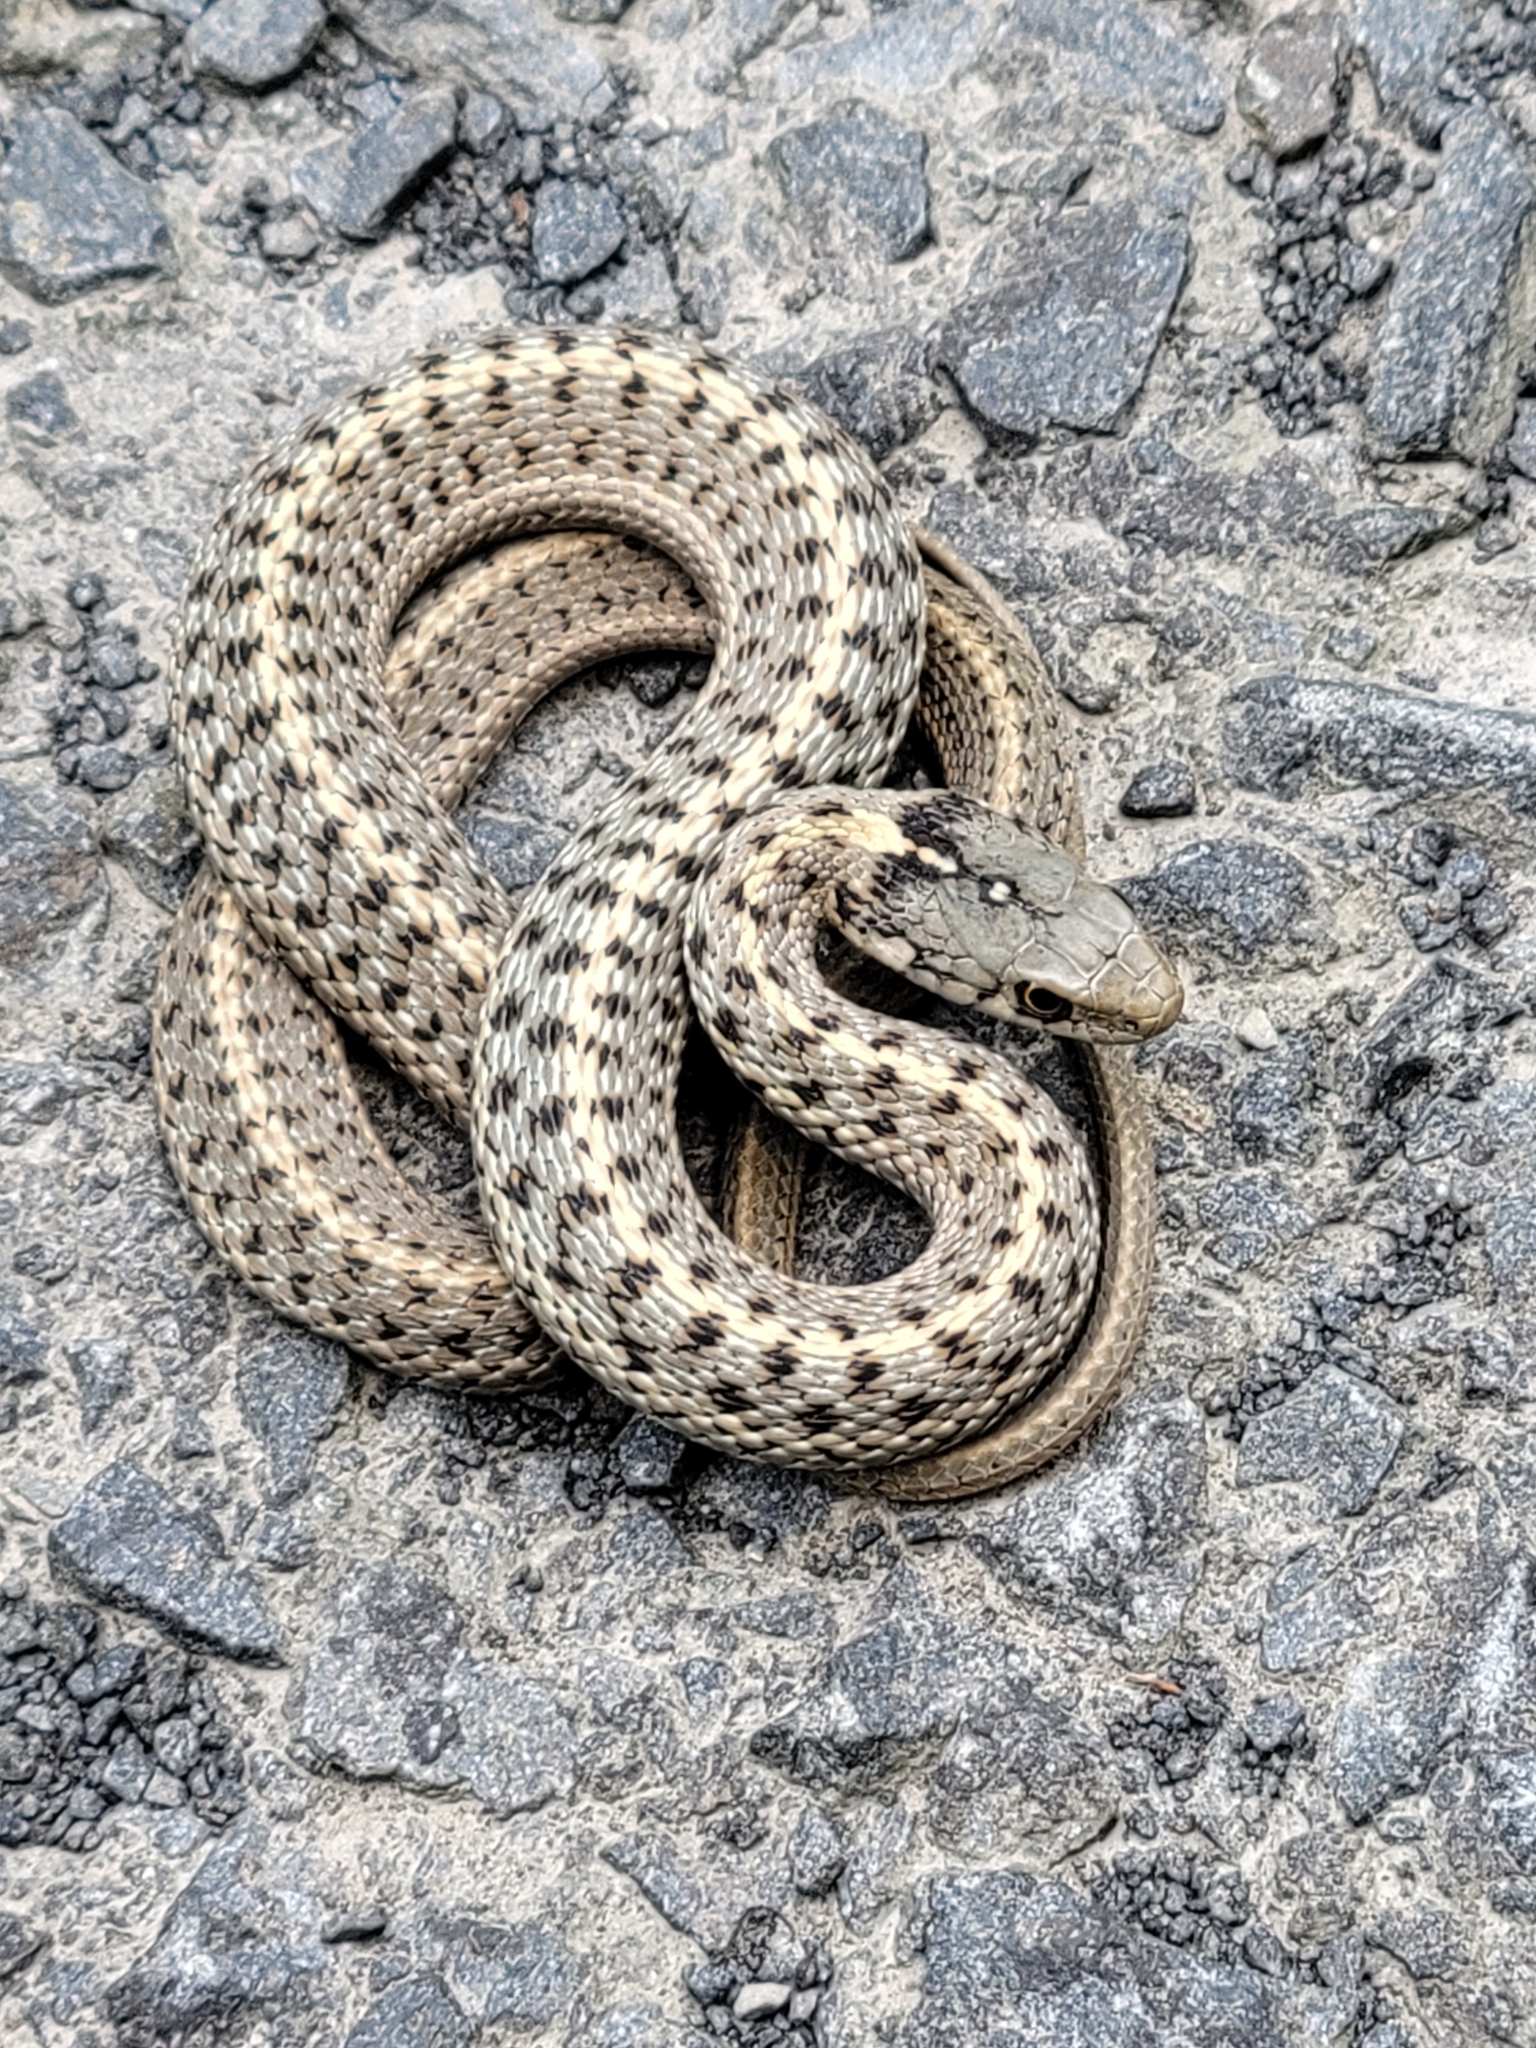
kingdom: Animalia
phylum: Chordata
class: Squamata
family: Colubridae
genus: Thamnophis
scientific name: Thamnophis elegans
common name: Western terrestrial garter snake
